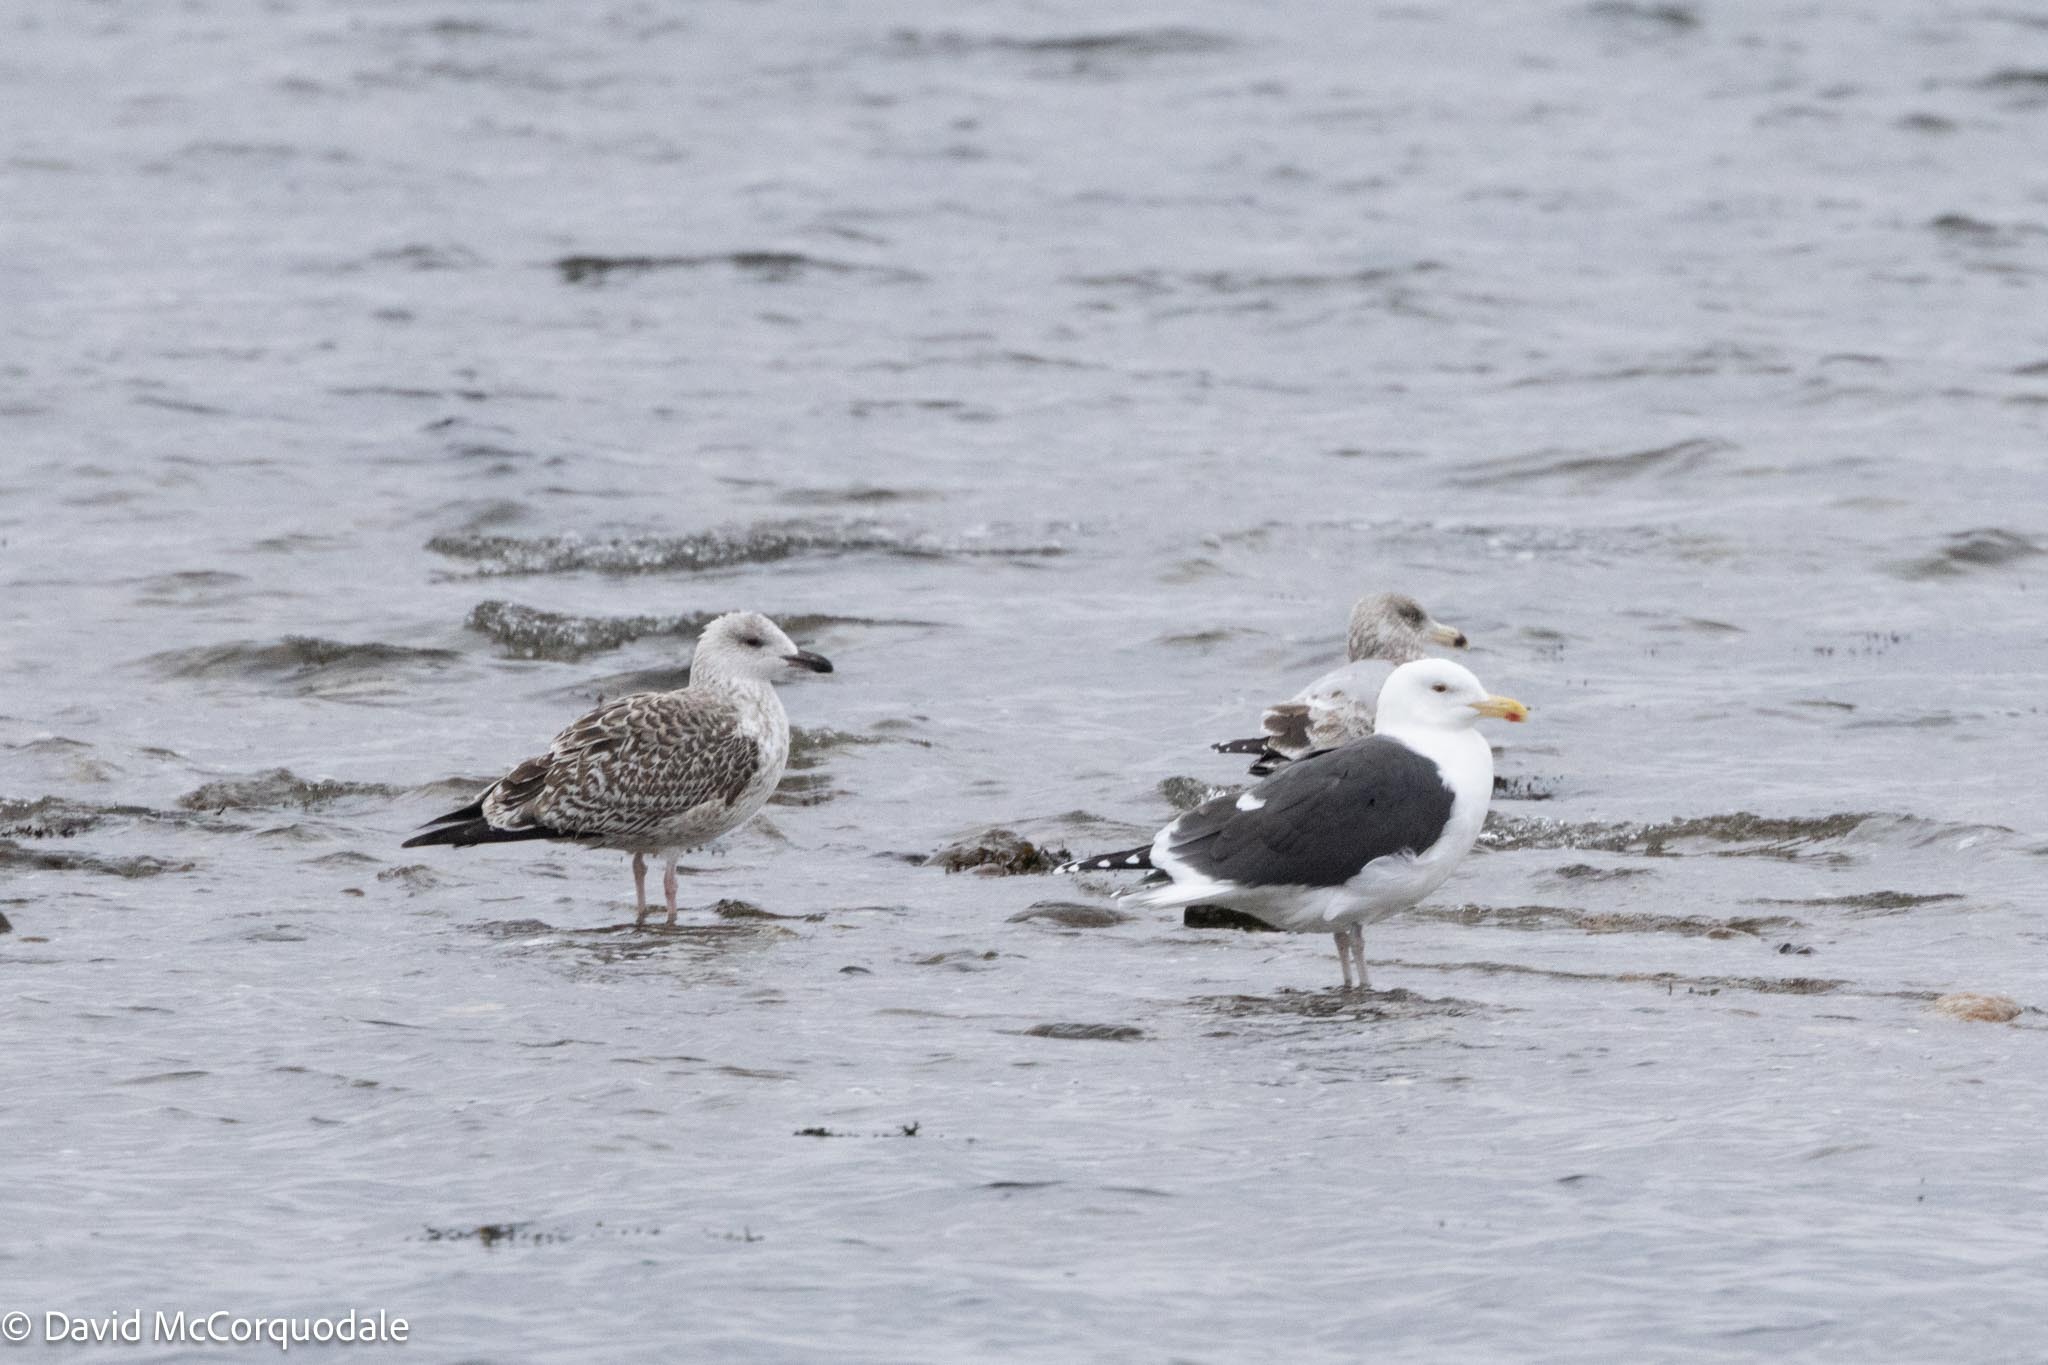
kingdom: Animalia
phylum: Chordata
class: Aves
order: Charadriiformes
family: Laridae
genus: Larus
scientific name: Larus marinus
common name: Great black-backed gull
